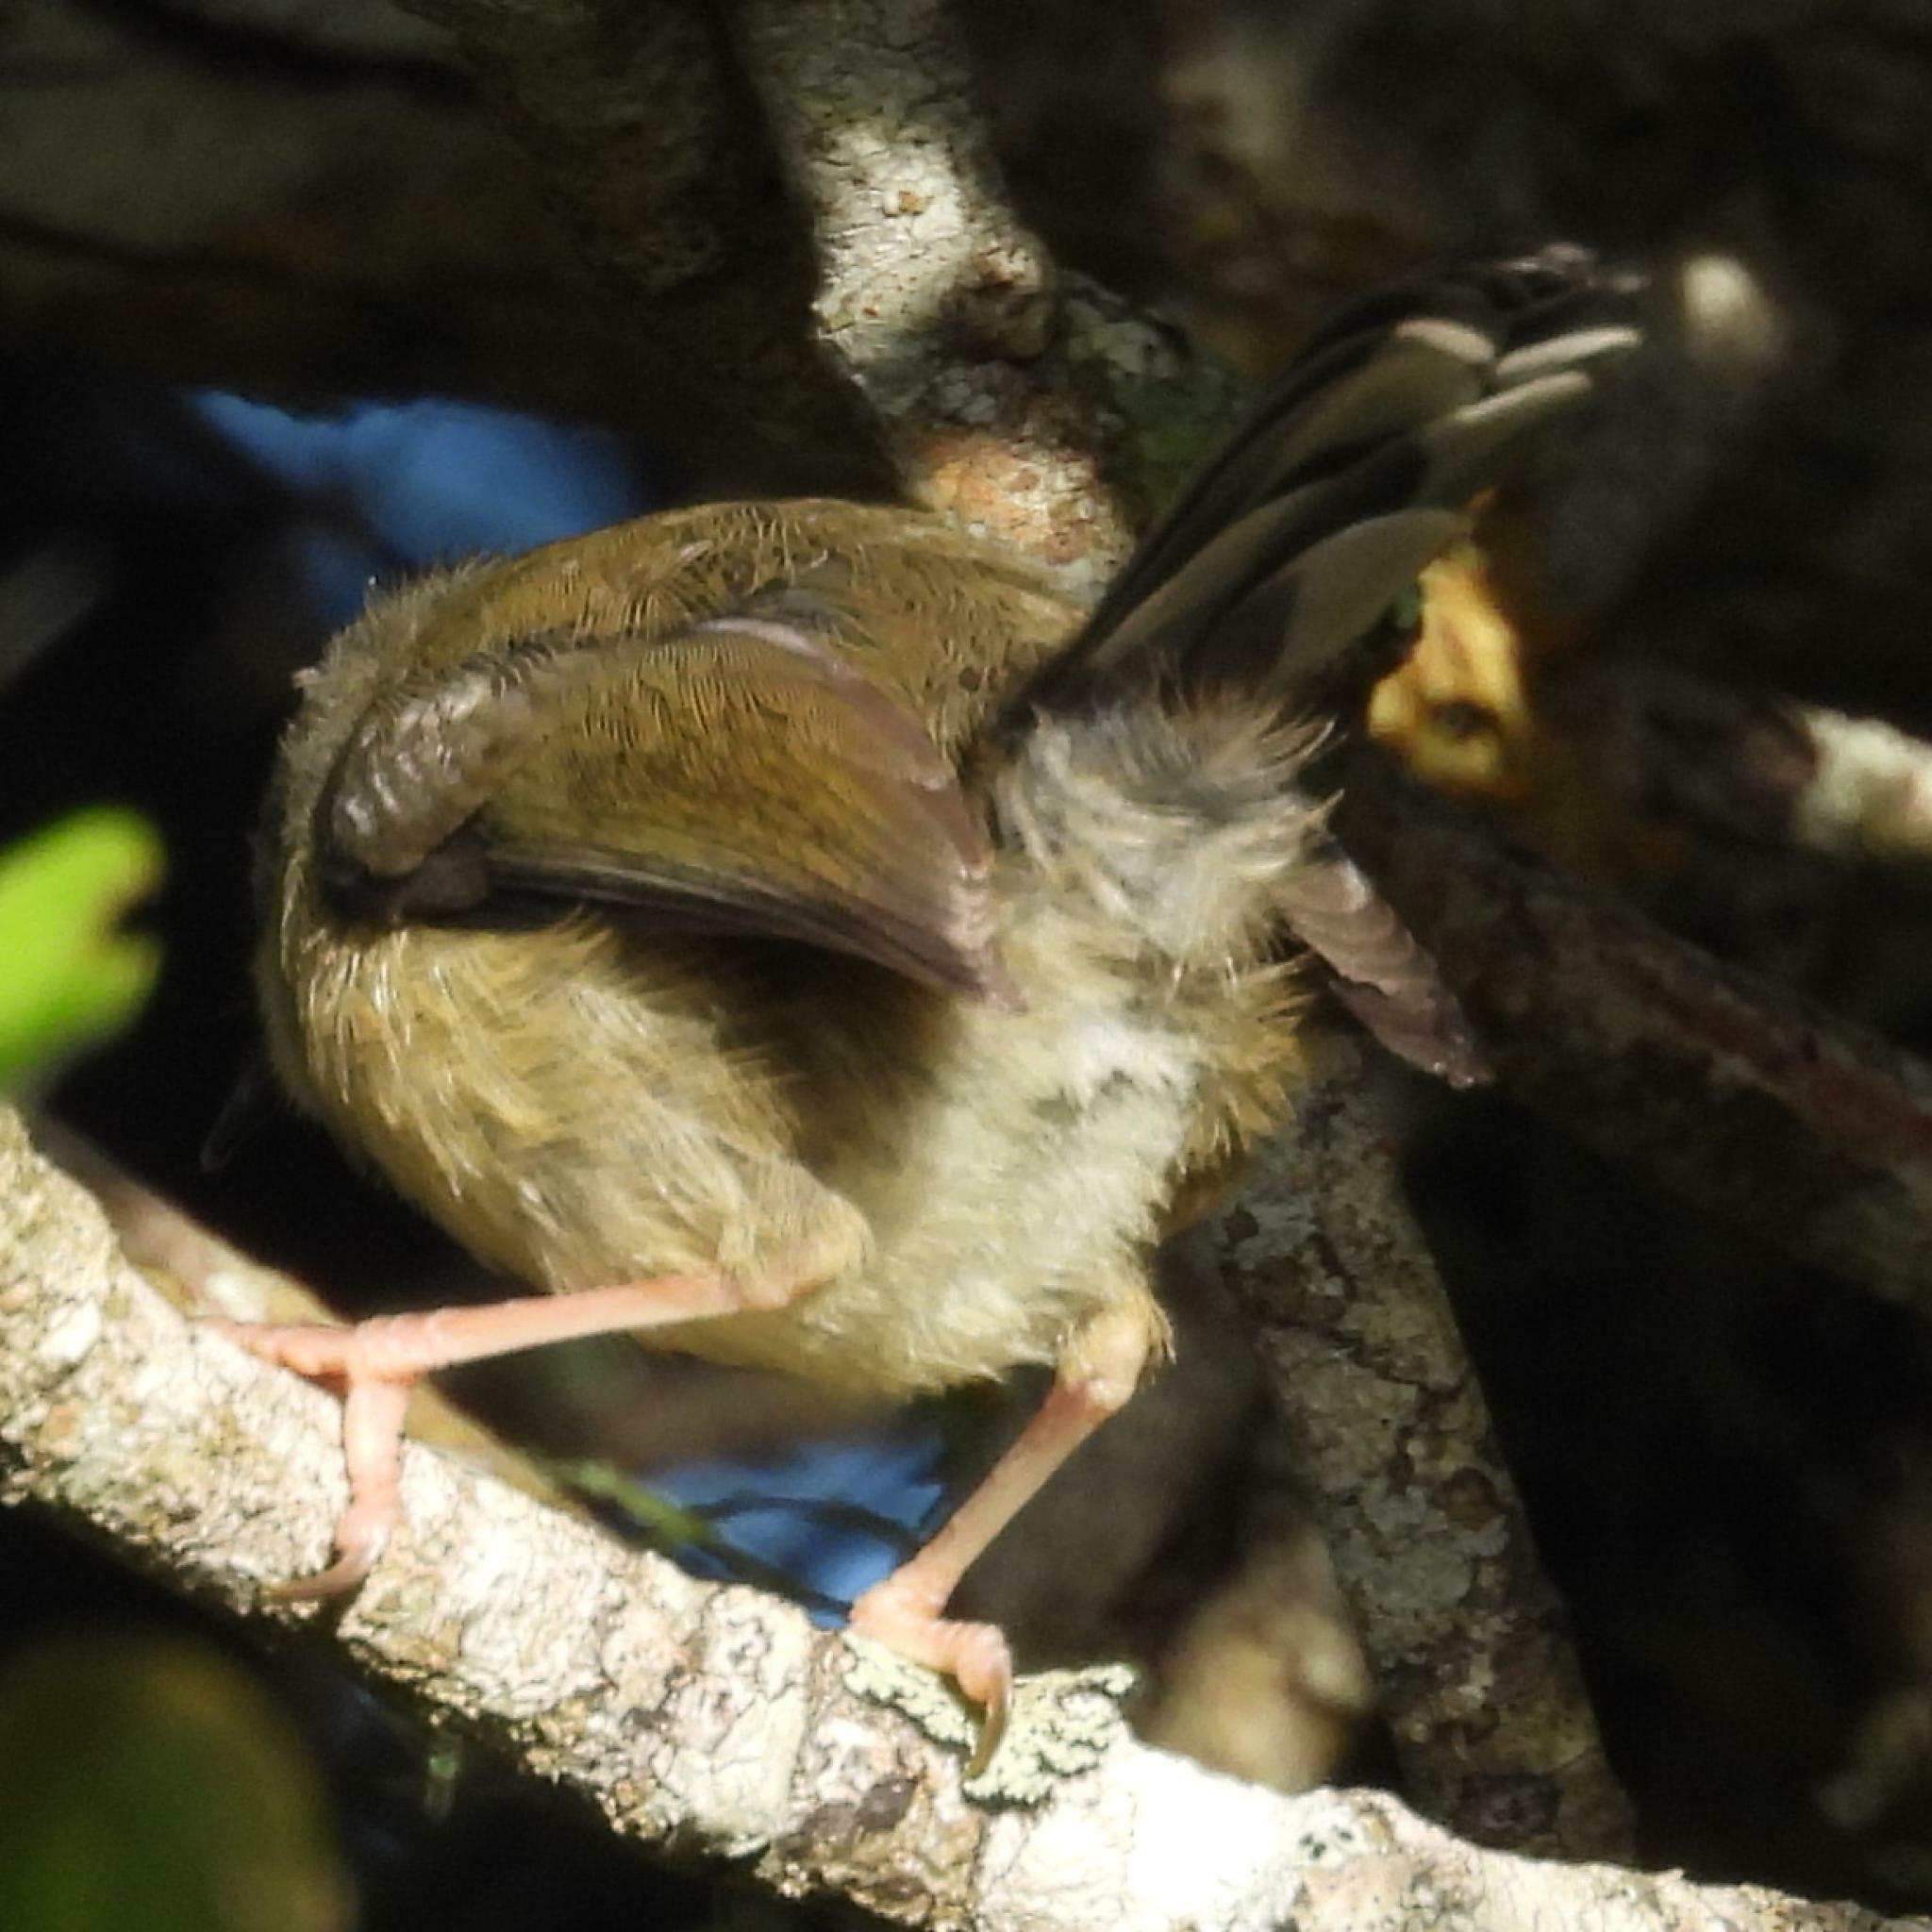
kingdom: Animalia
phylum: Chordata
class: Aves
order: Passeriformes
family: Cisticolidae
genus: Apalis
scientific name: Apalis thoracica
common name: Bar-throated apalis
